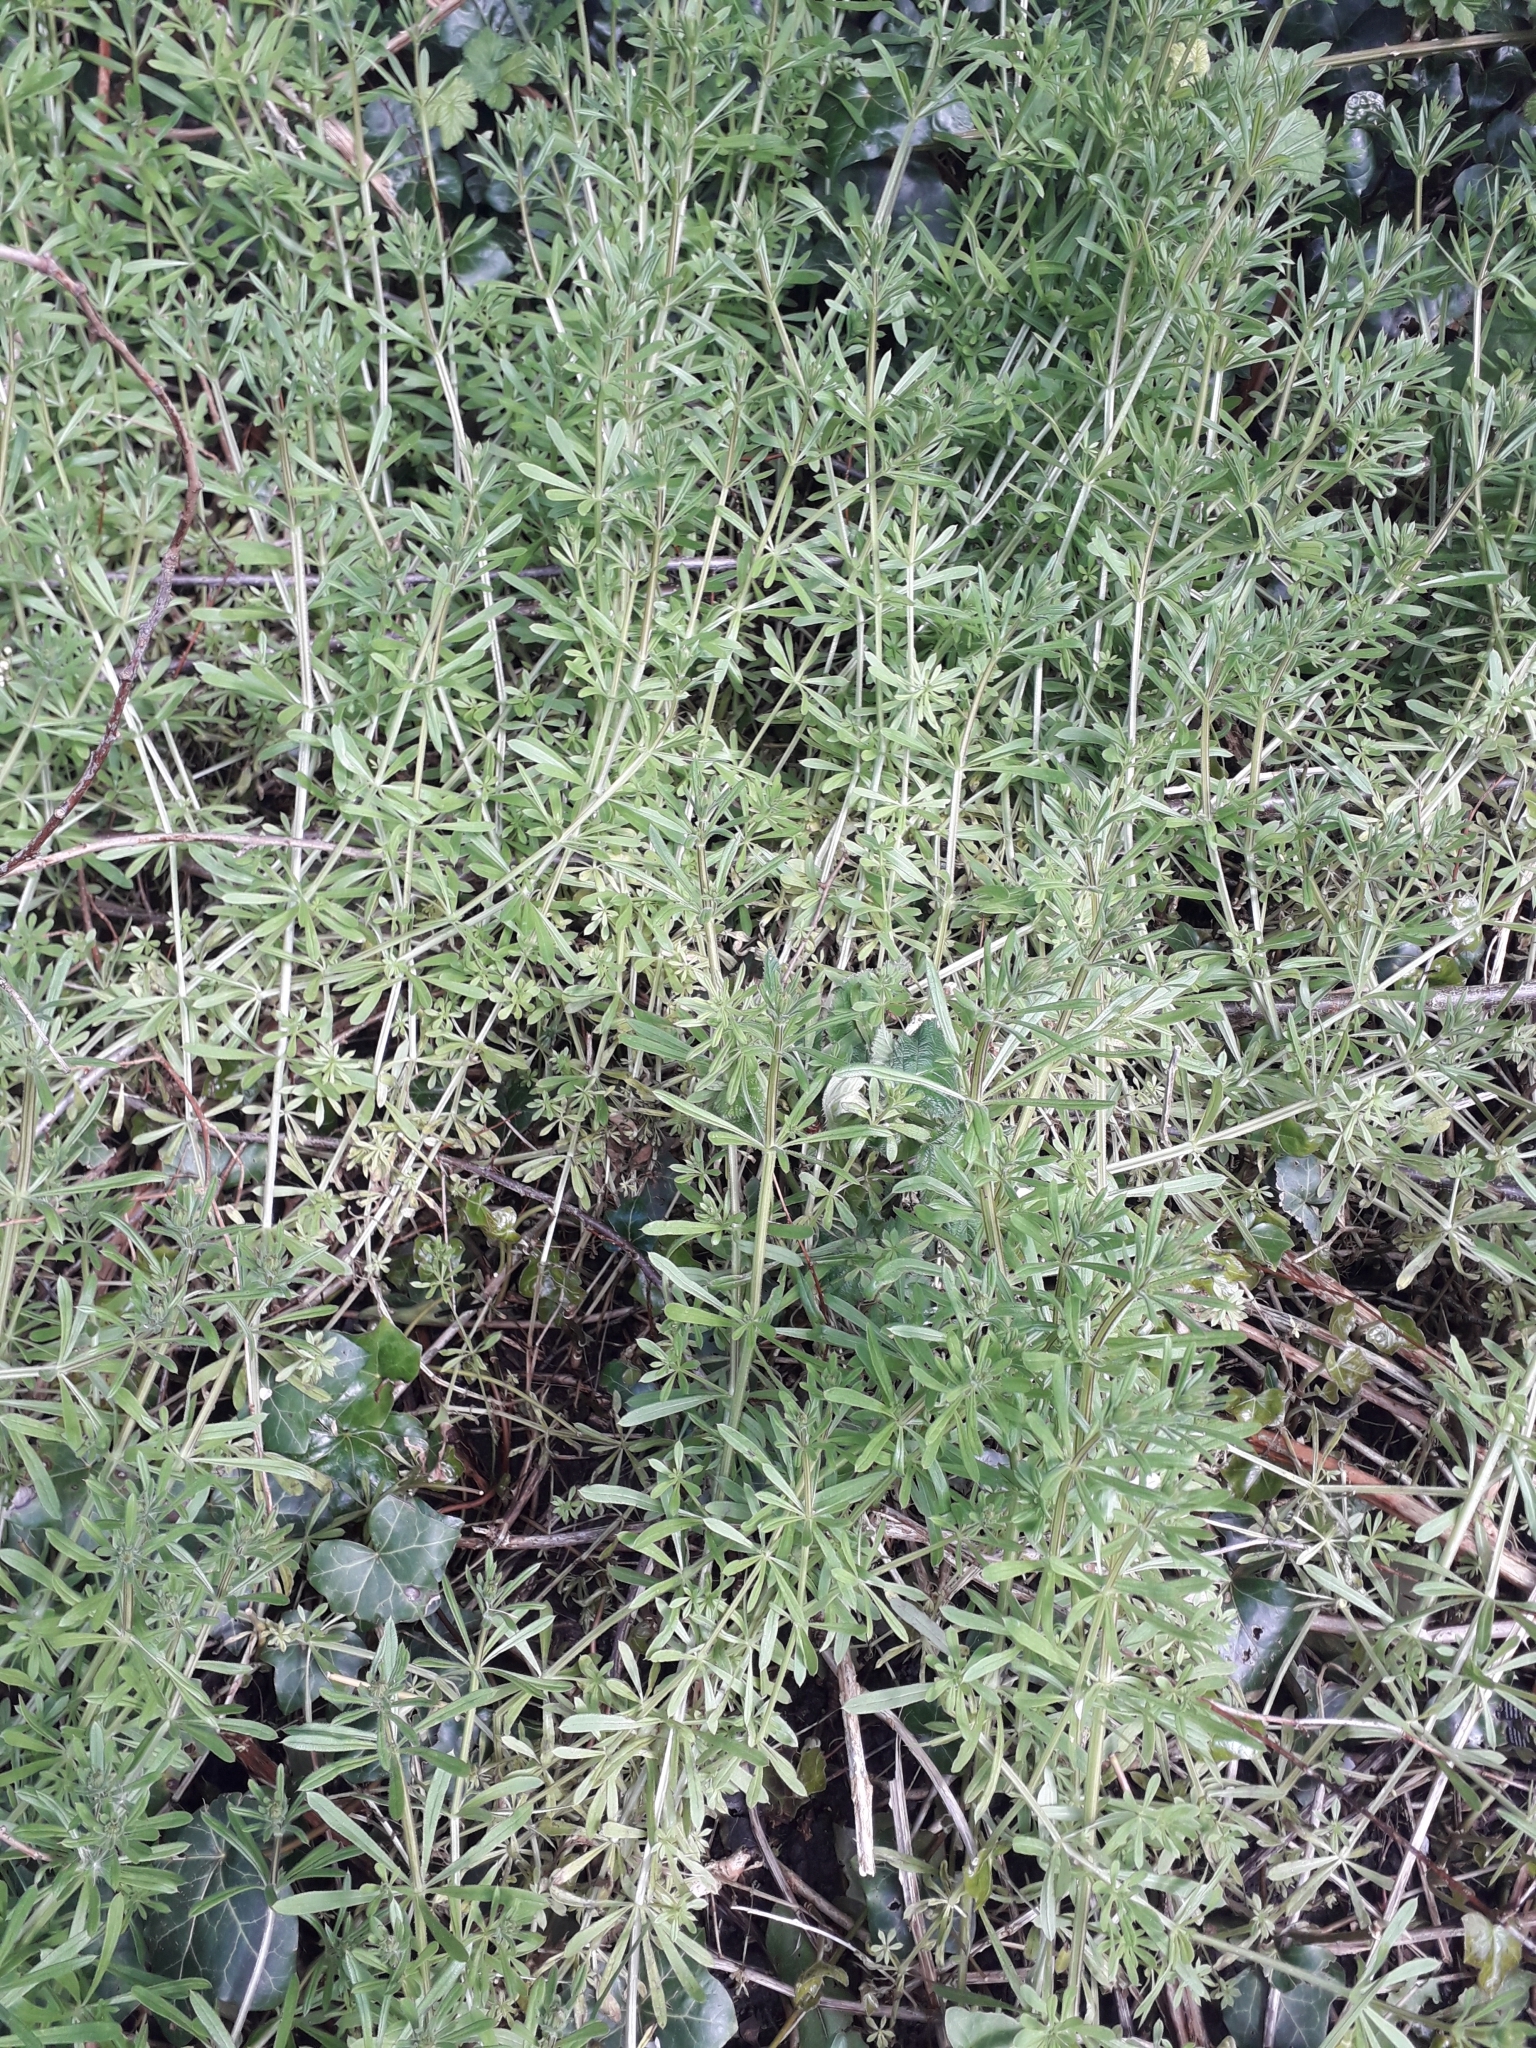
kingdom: Plantae
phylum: Tracheophyta
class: Magnoliopsida
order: Gentianales
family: Rubiaceae
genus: Galium
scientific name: Galium aparine
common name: Cleavers
